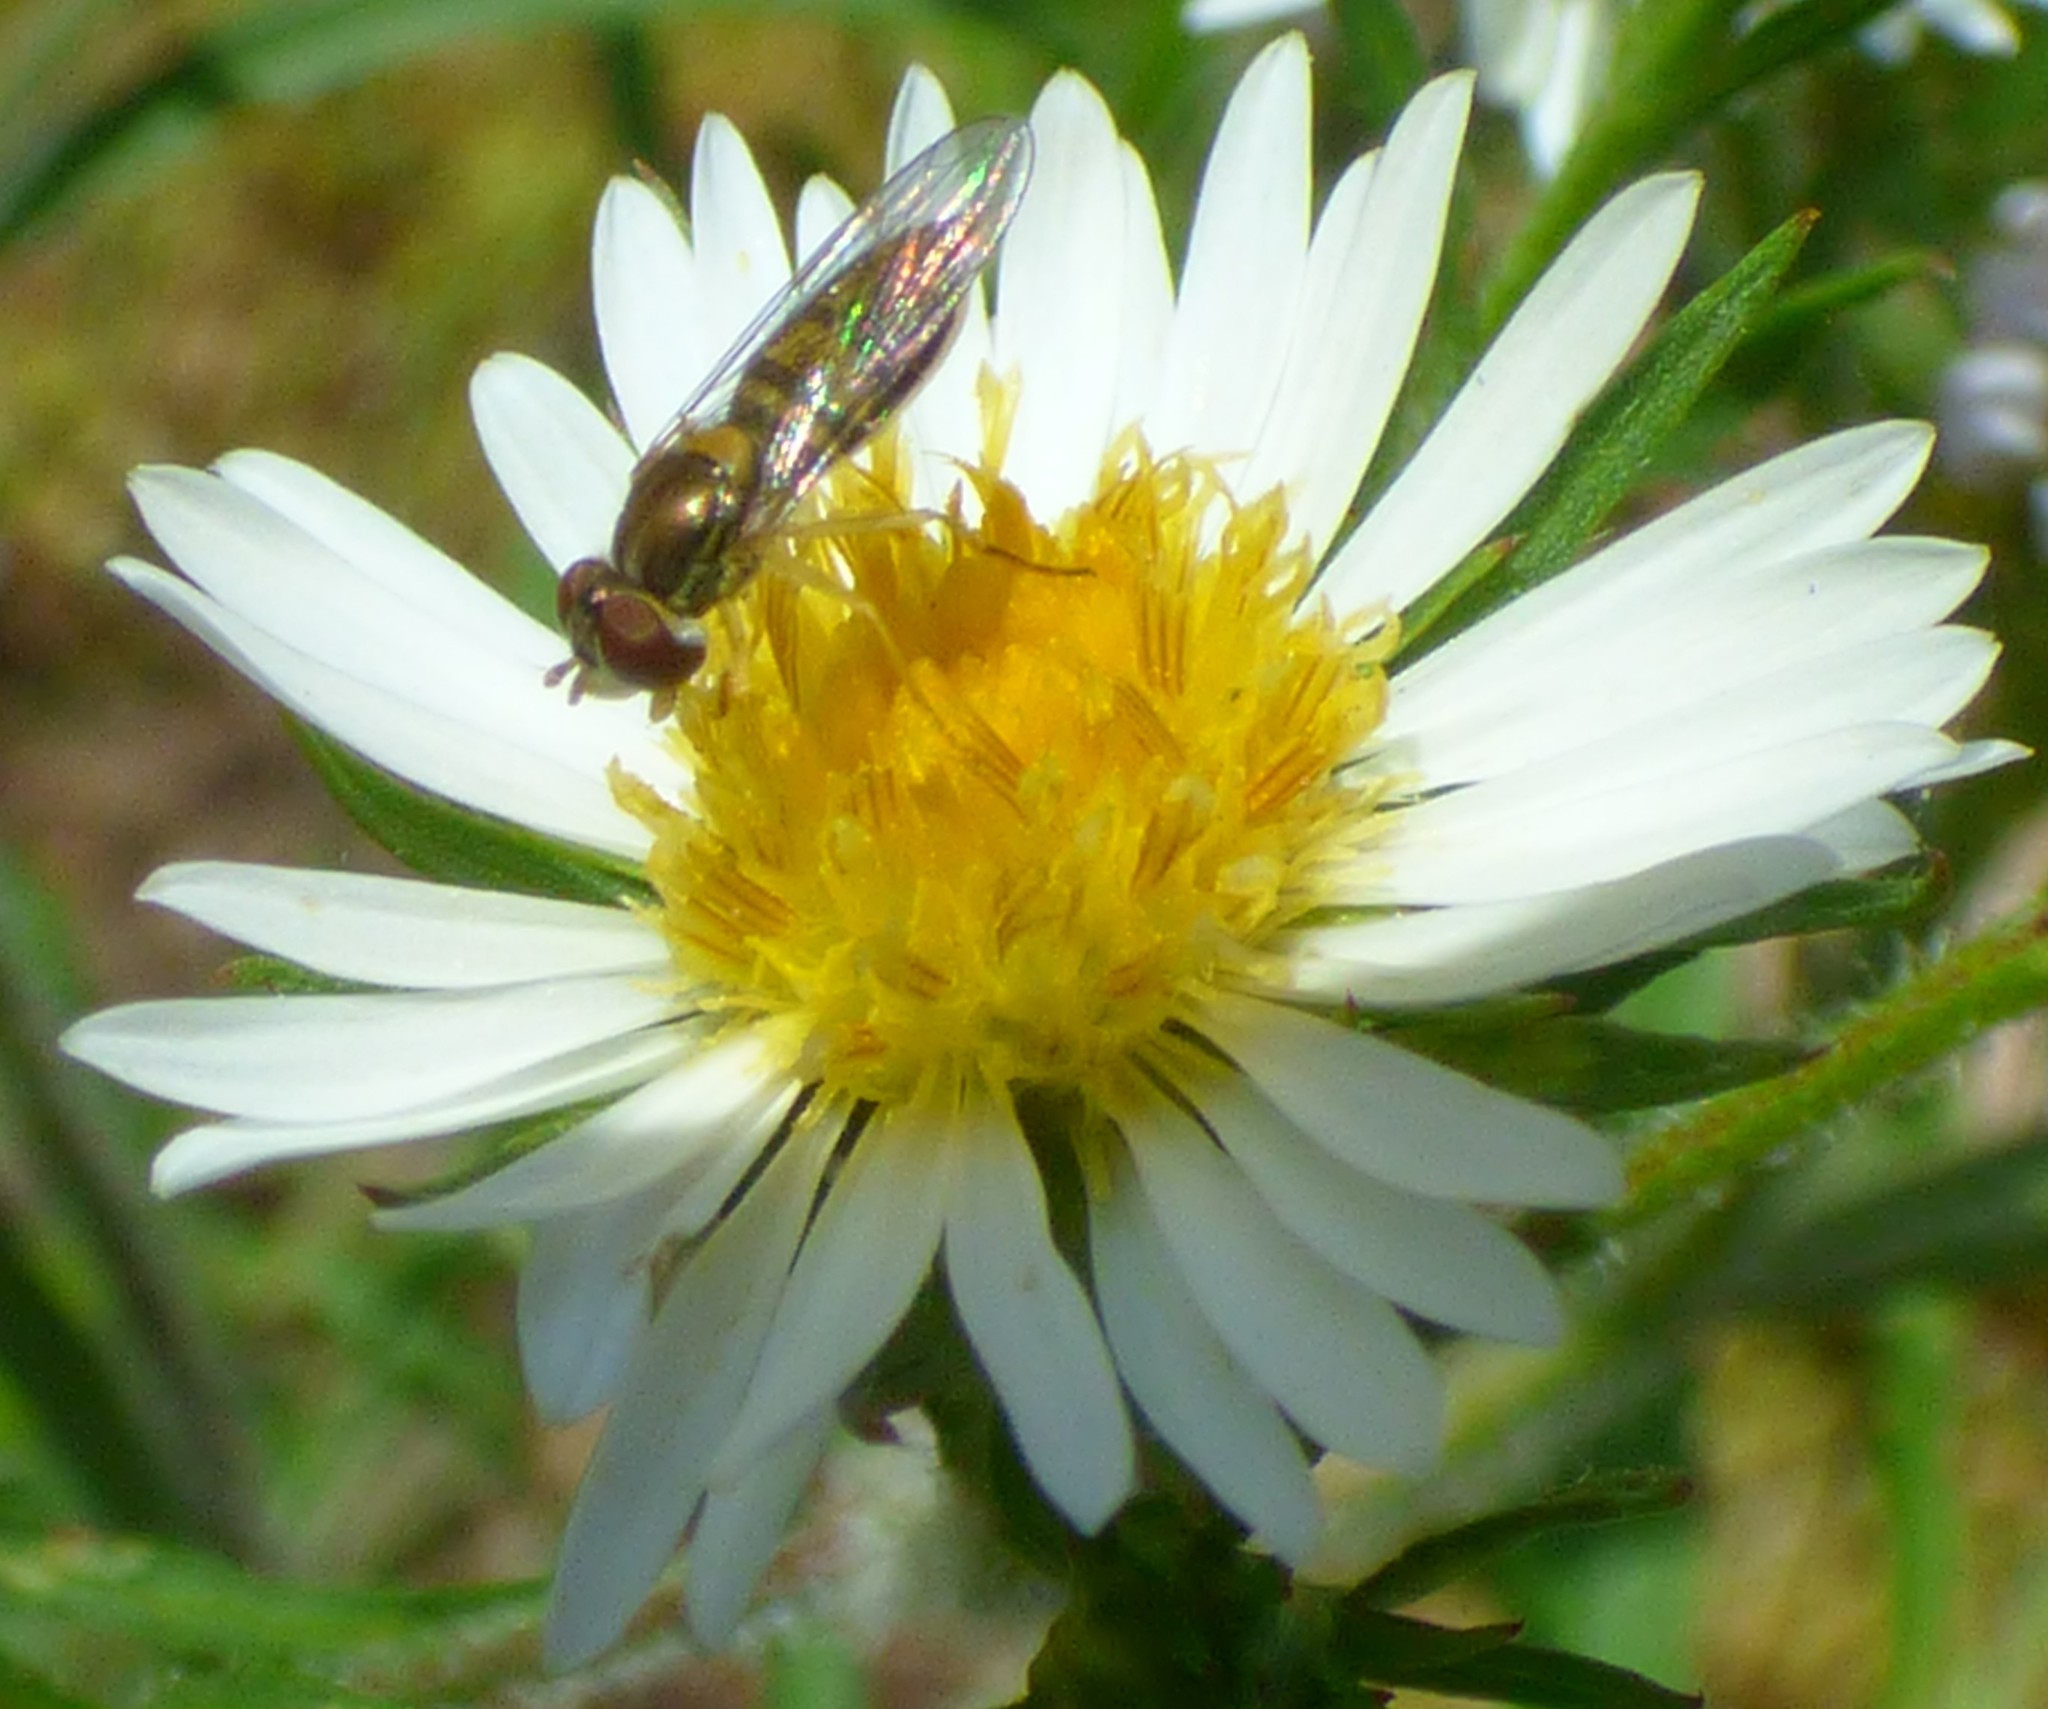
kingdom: Animalia
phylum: Arthropoda
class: Insecta
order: Diptera
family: Syrphidae
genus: Toxomerus
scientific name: Toxomerus marginatus
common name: Syrphid fly
